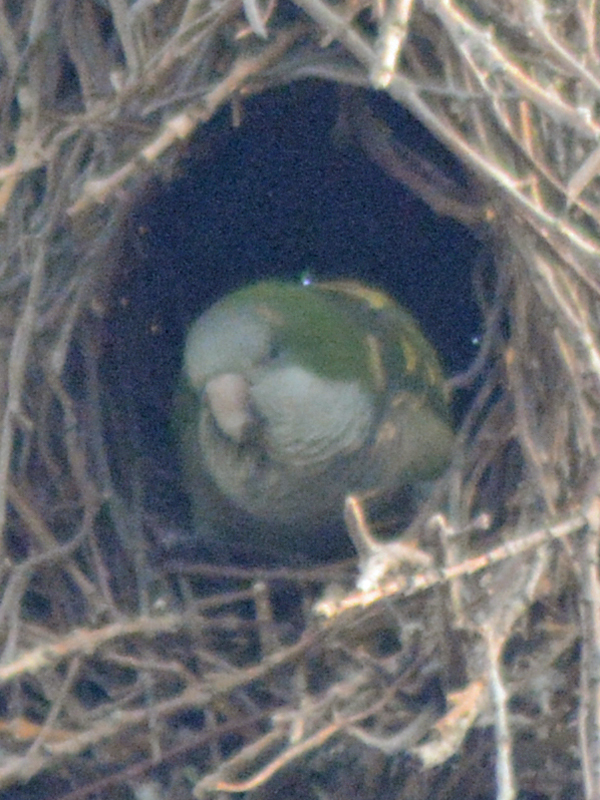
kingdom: Animalia
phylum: Chordata
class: Aves
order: Psittaciformes
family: Psittacidae
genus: Myiopsitta
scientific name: Myiopsitta monachus
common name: Monk parakeet
